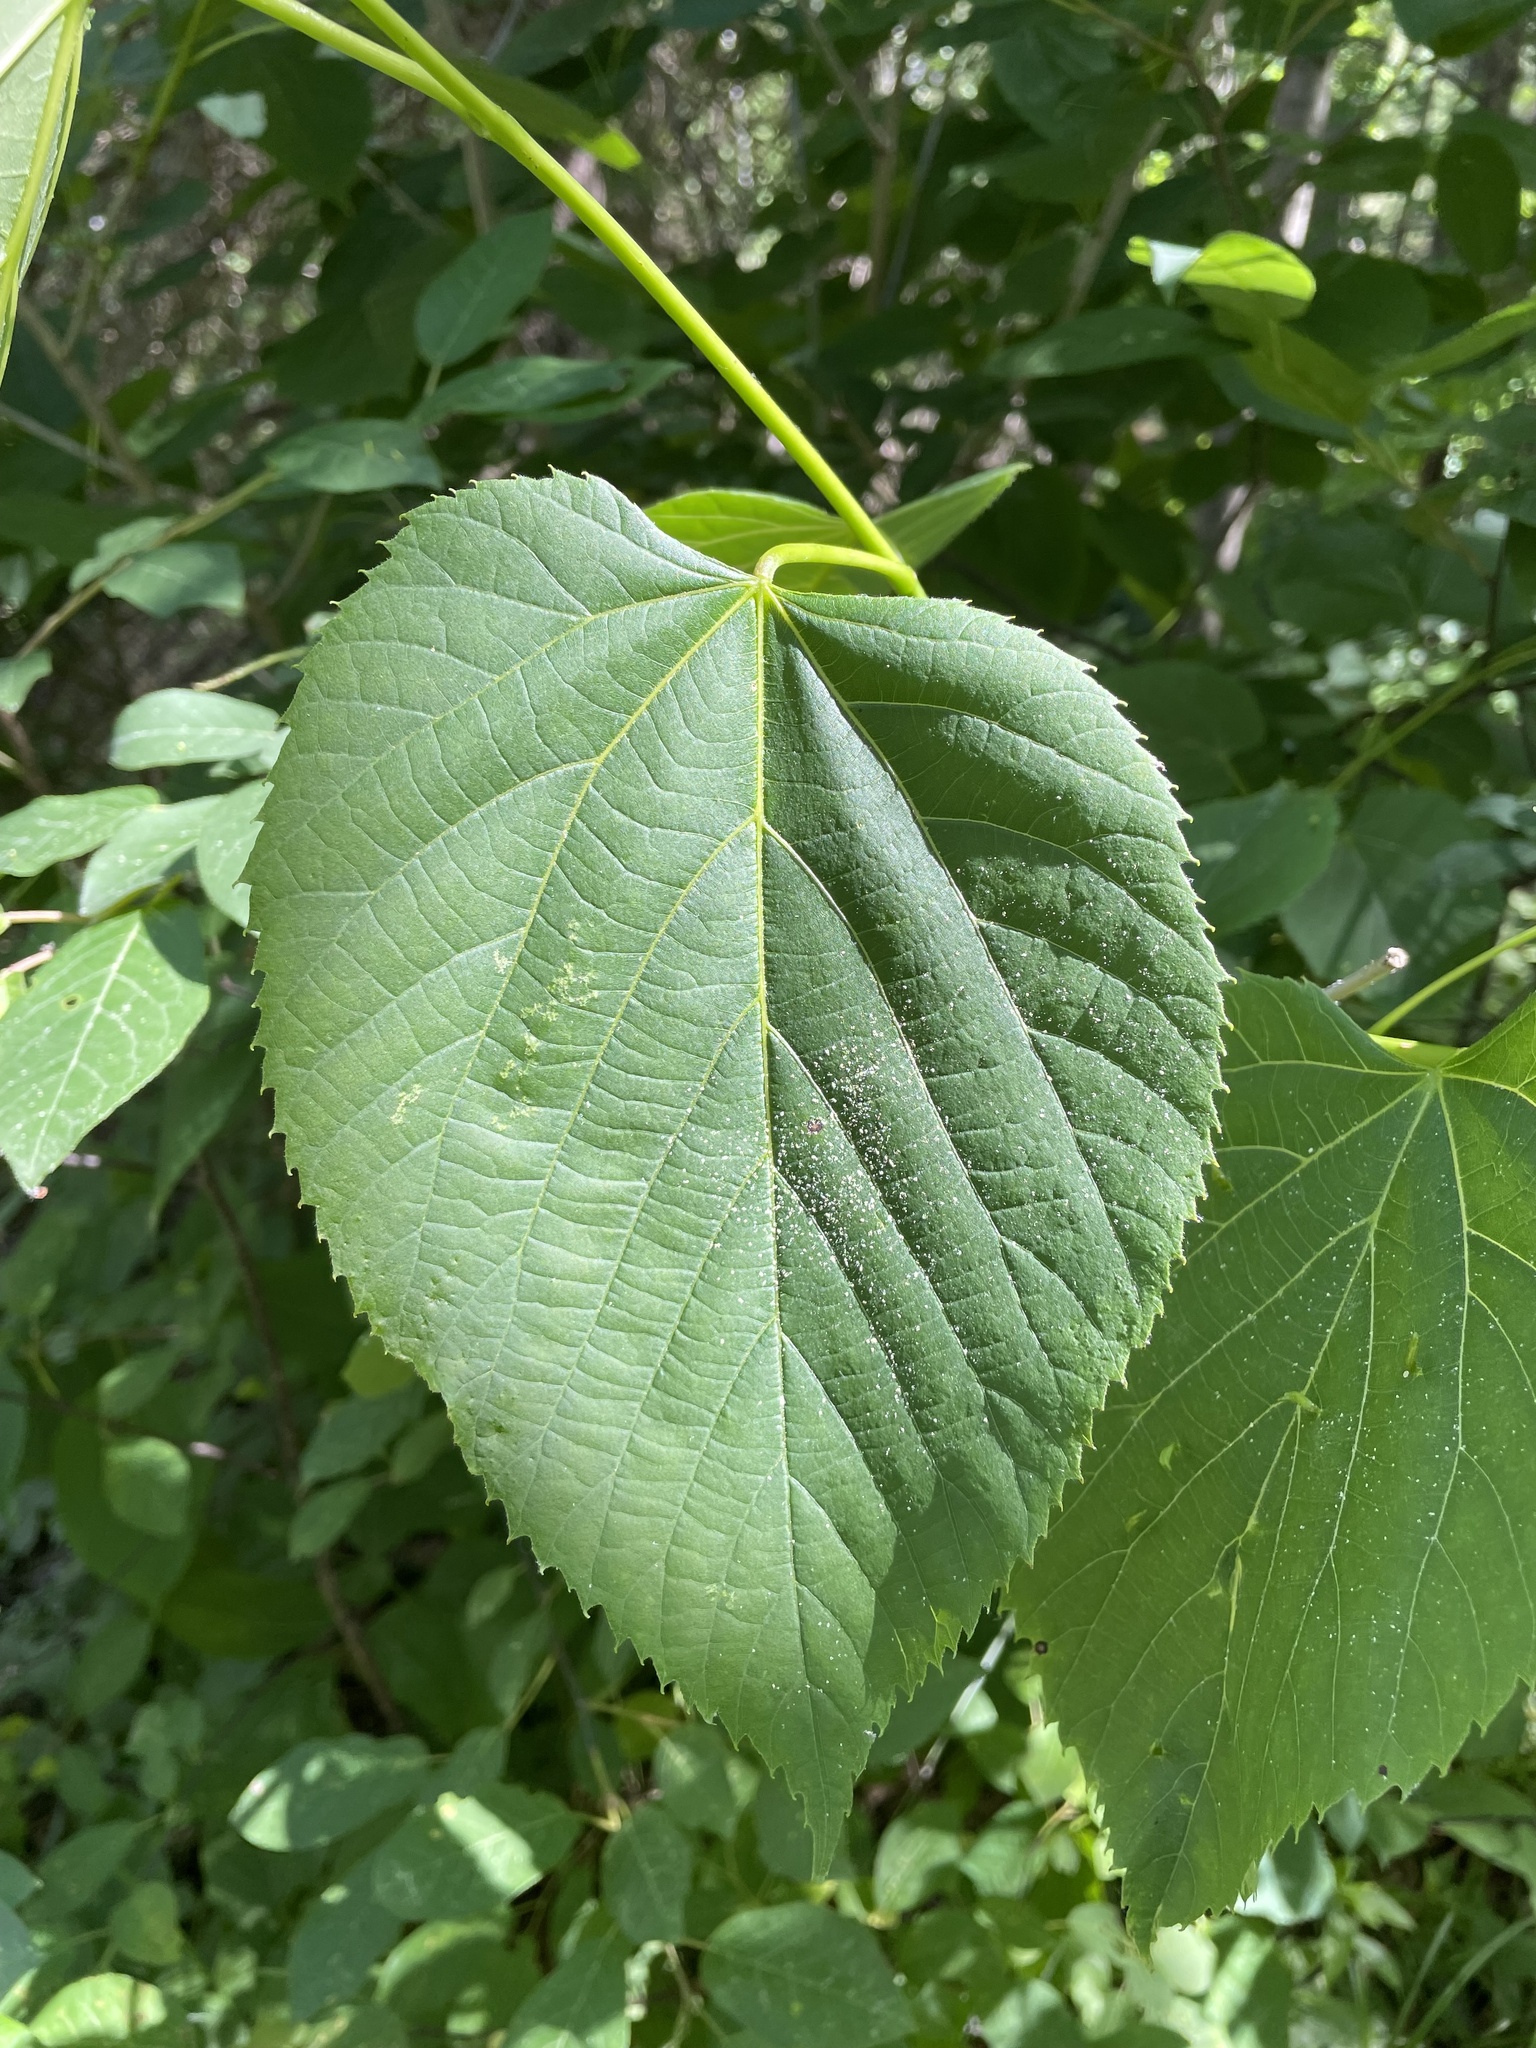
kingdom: Plantae
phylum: Tracheophyta
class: Magnoliopsida
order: Malvales
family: Malvaceae
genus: Tilia
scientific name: Tilia americana
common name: Basswood
